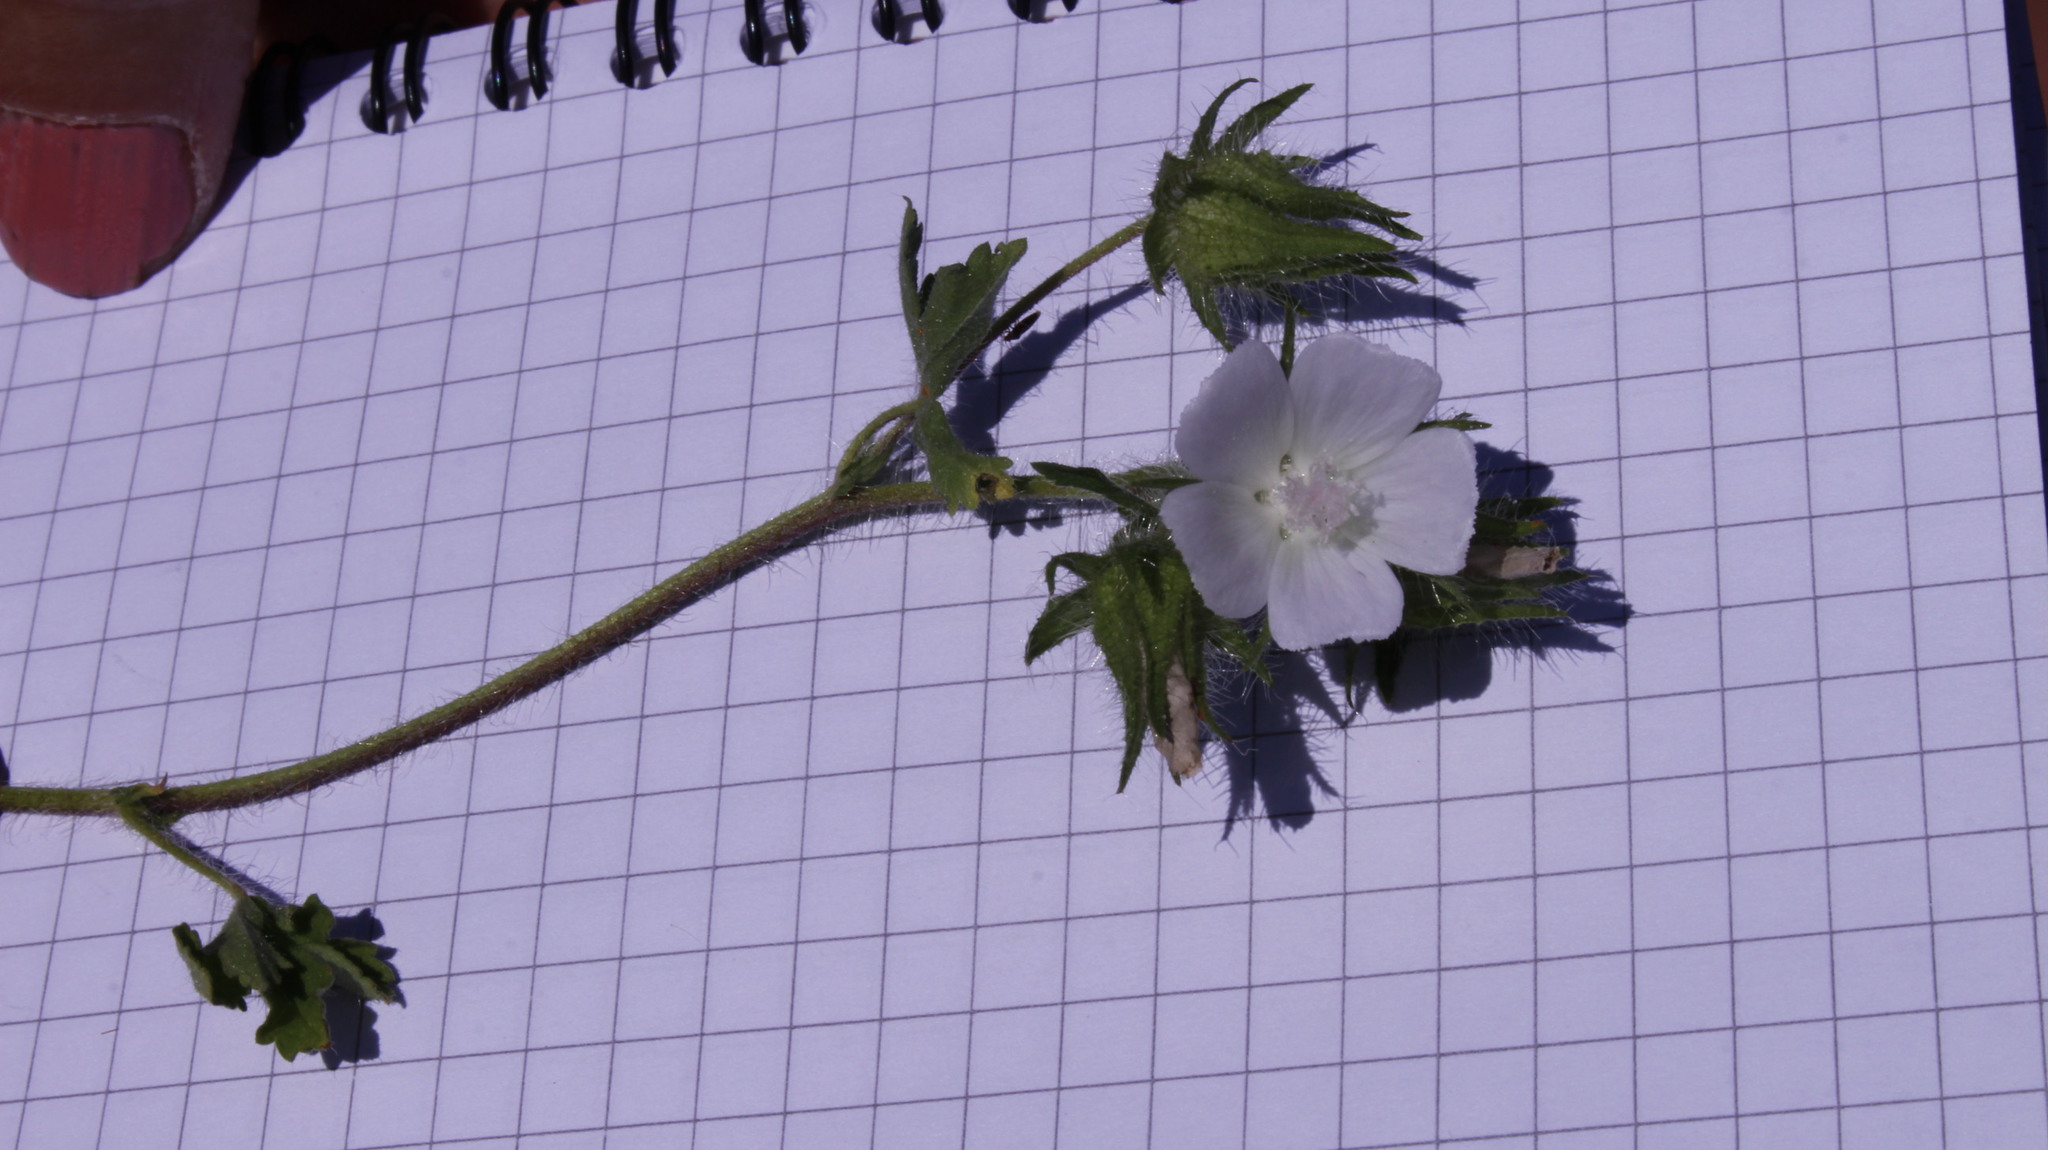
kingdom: Plantae
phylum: Tracheophyta
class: Magnoliopsida
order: Malvales
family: Malvaceae
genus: Althaea
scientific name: Althaea hirsuta
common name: Rough marsh-mallow
